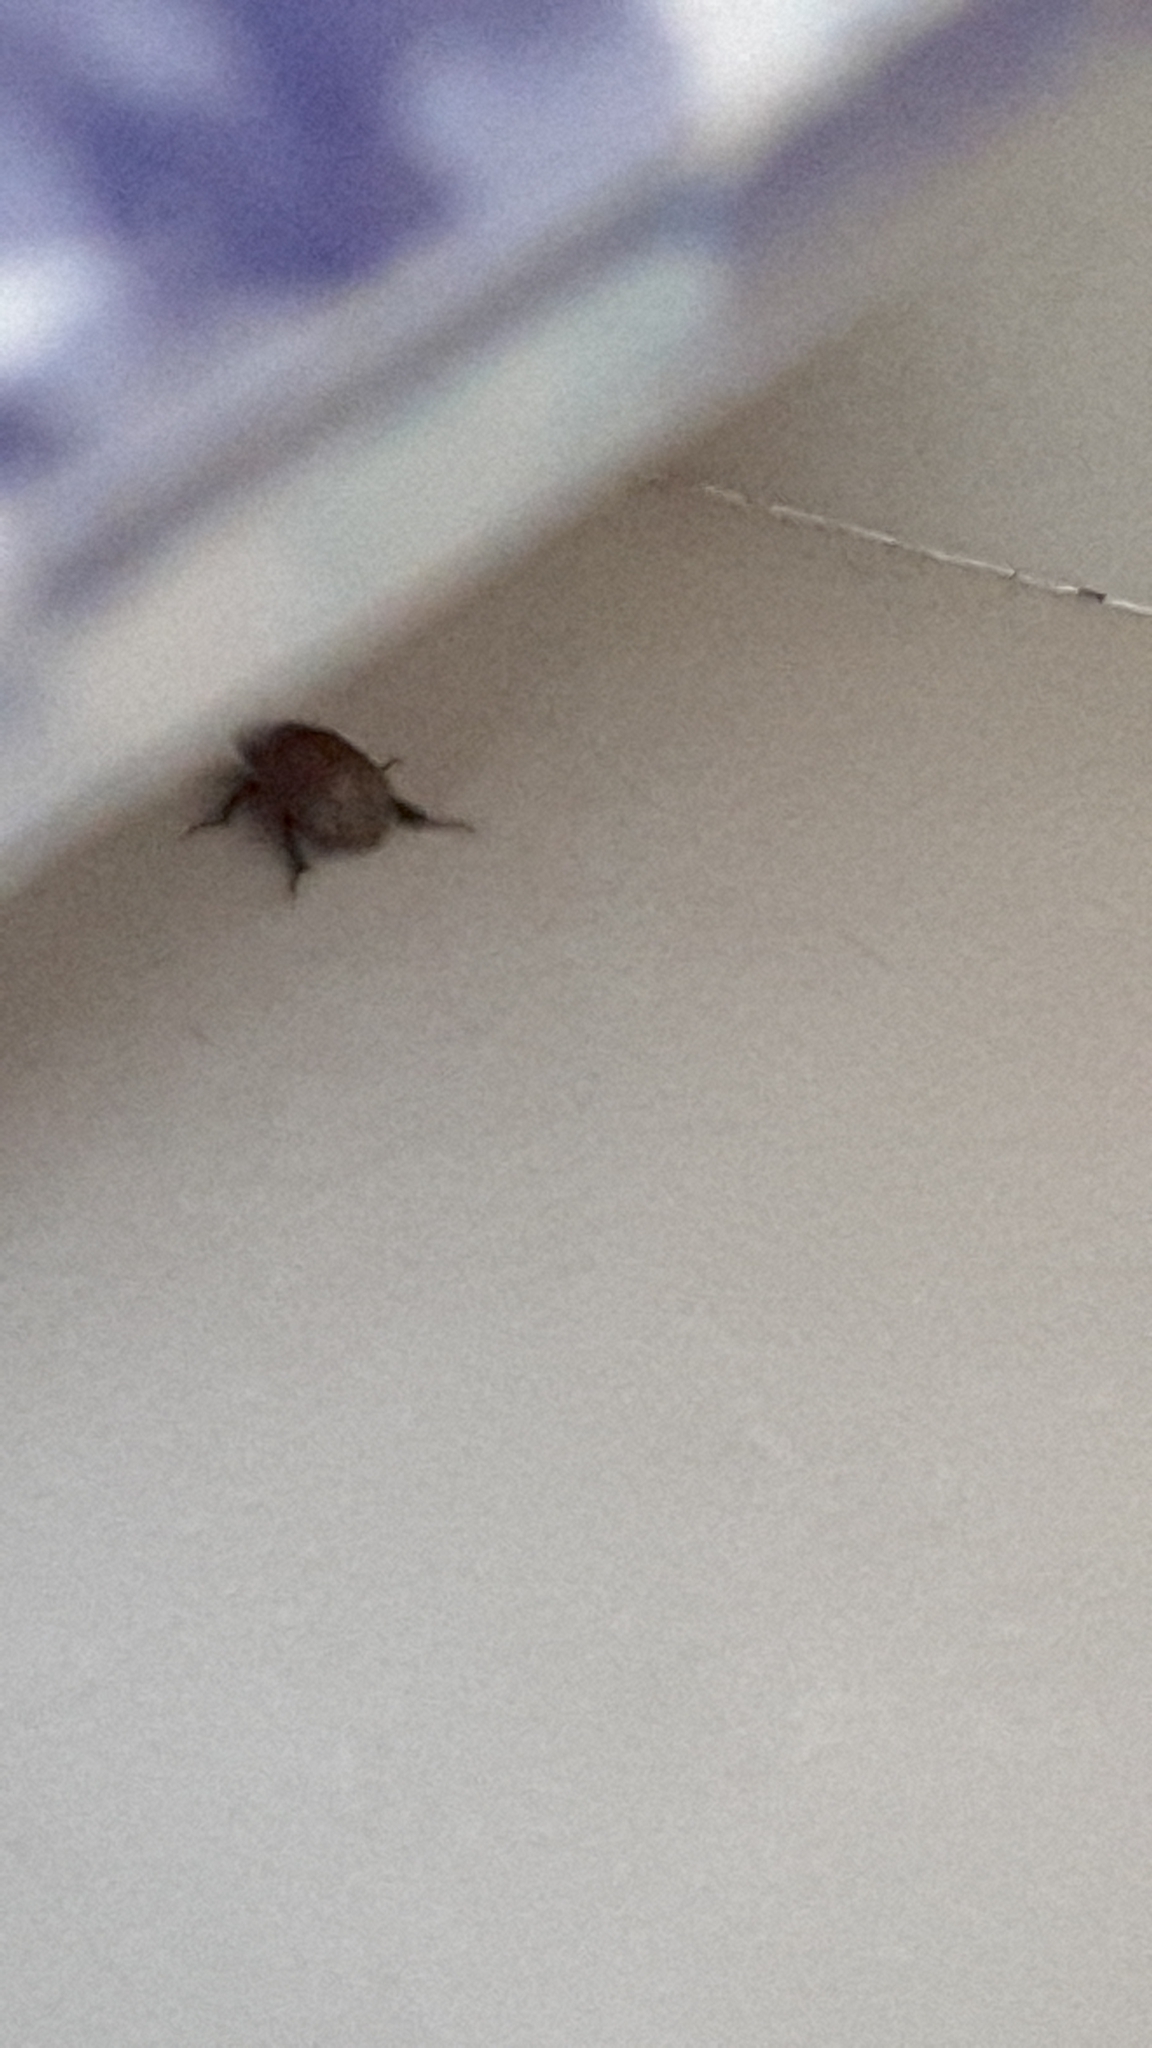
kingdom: Animalia
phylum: Arthropoda
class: Insecta
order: Coleoptera
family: Scarabaeidae
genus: Anomala
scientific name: Anomala obsoleta
